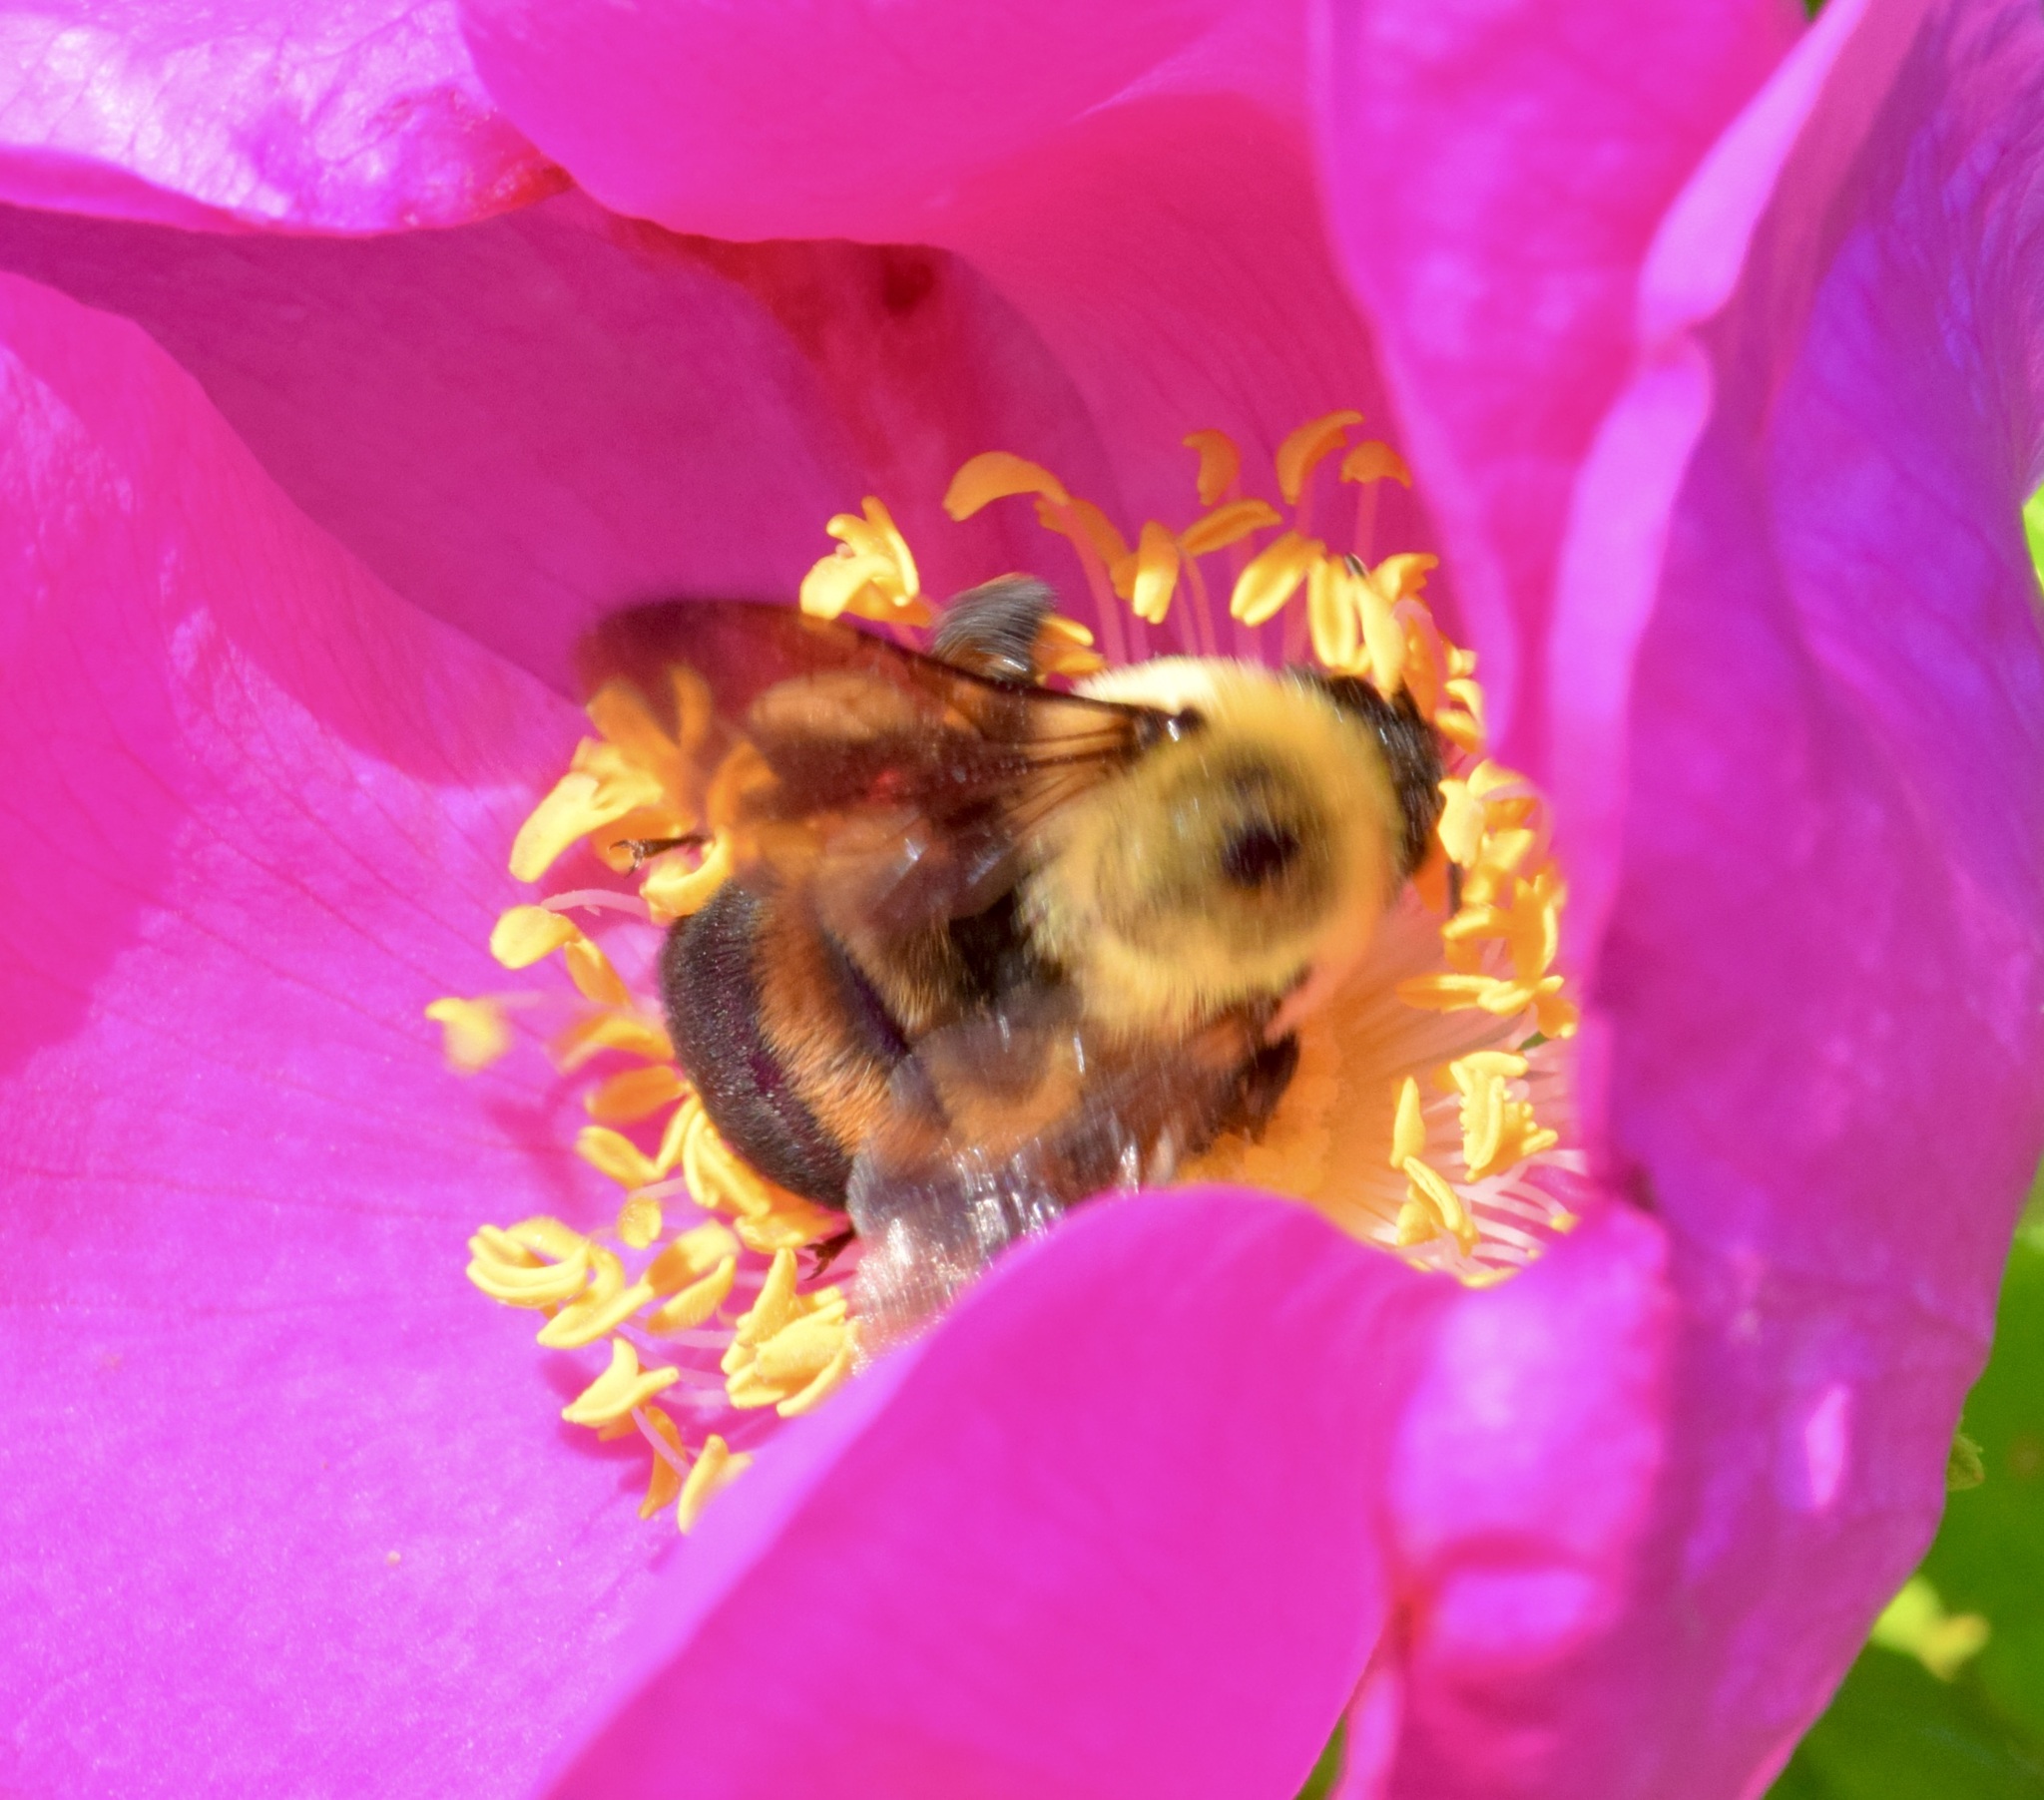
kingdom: Animalia
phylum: Arthropoda
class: Insecta
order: Hymenoptera
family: Apidae
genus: Bombus
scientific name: Bombus griseocollis
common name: Brown-belted bumble bee
